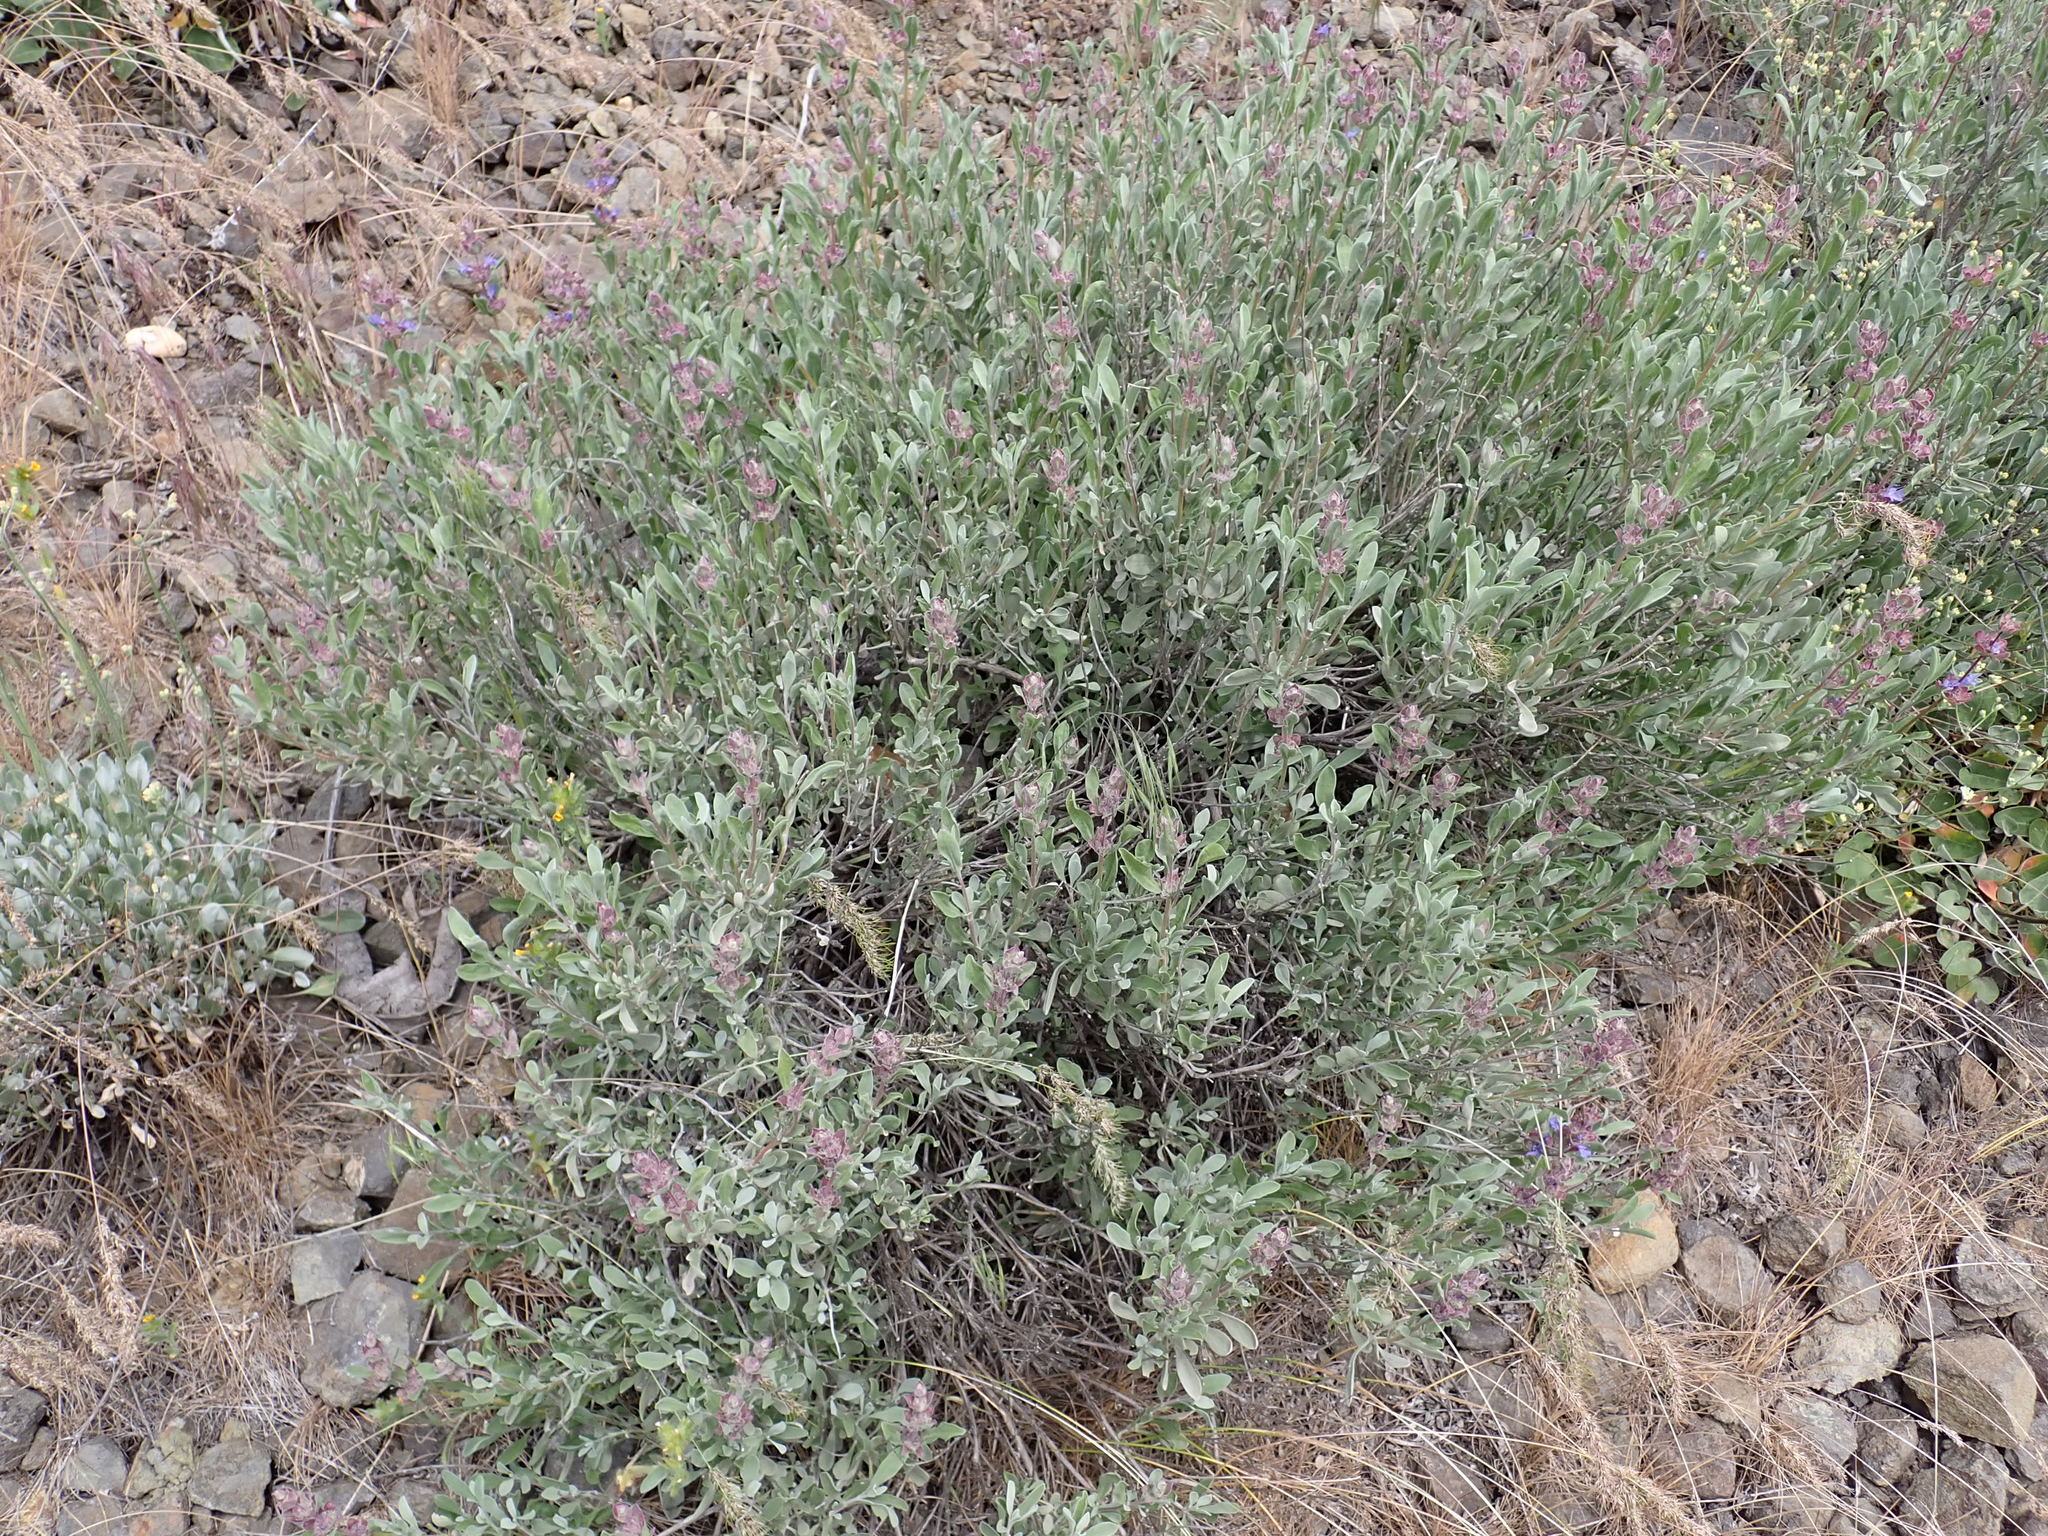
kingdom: Plantae
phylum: Tracheophyta
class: Magnoliopsida
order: Lamiales
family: Lamiaceae
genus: Salvia
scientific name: Salvia dorrii
